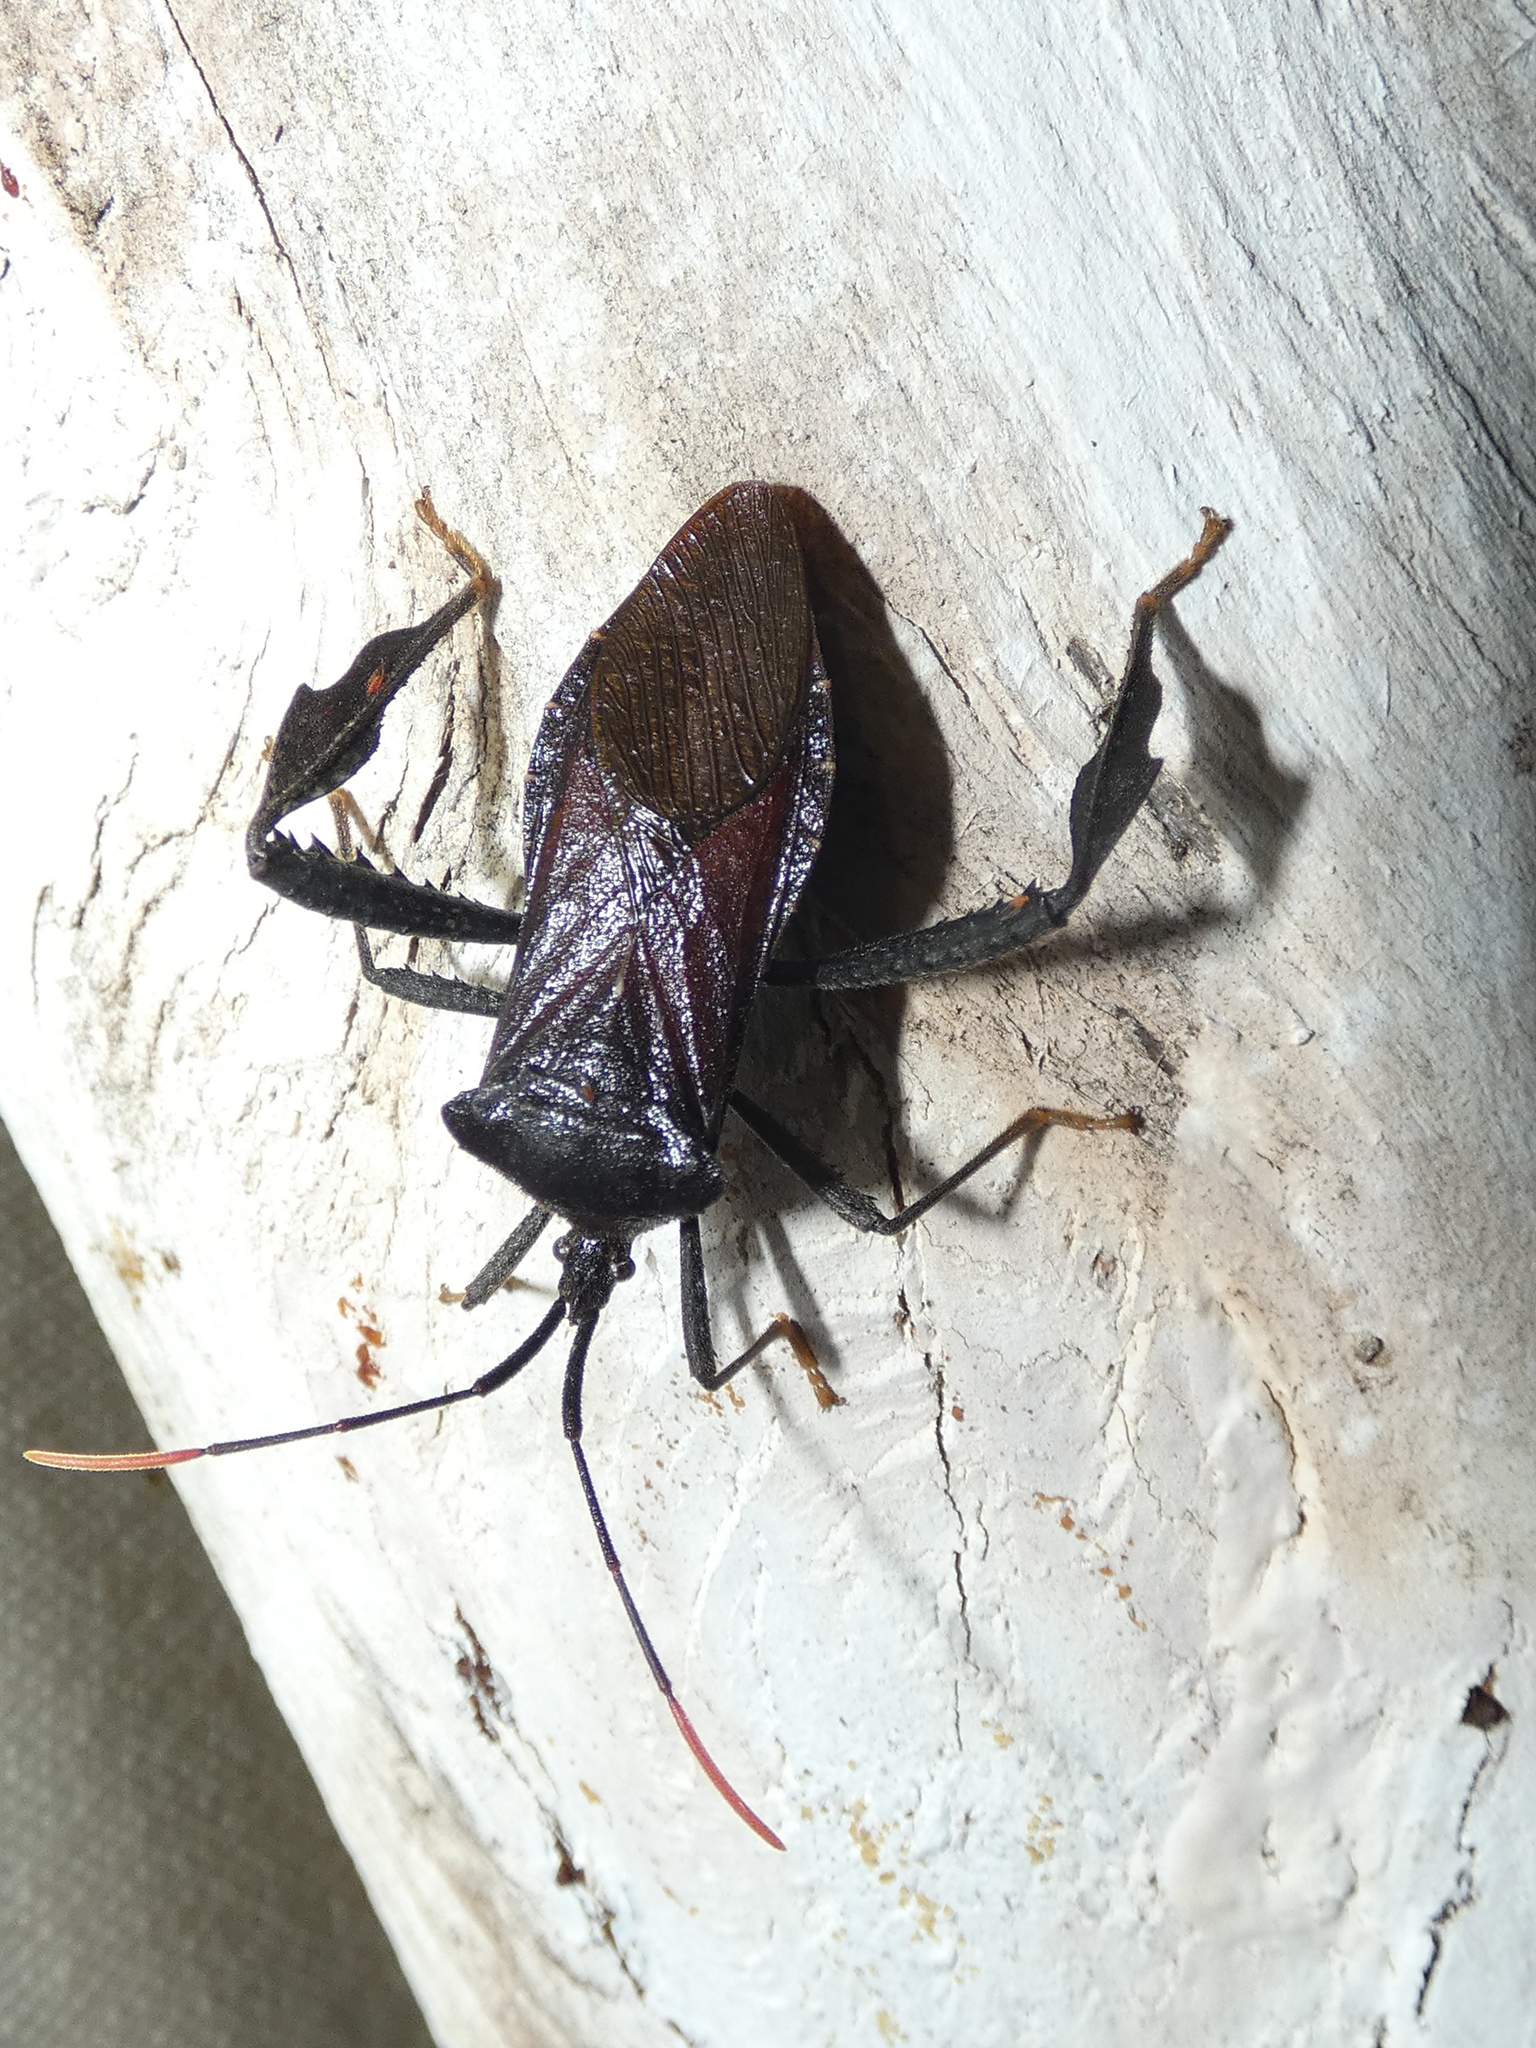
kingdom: Animalia
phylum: Arthropoda
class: Insecta
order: Hemiptera
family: Coreidae
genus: Acanthocephala
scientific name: Acanthocephala terminalis
